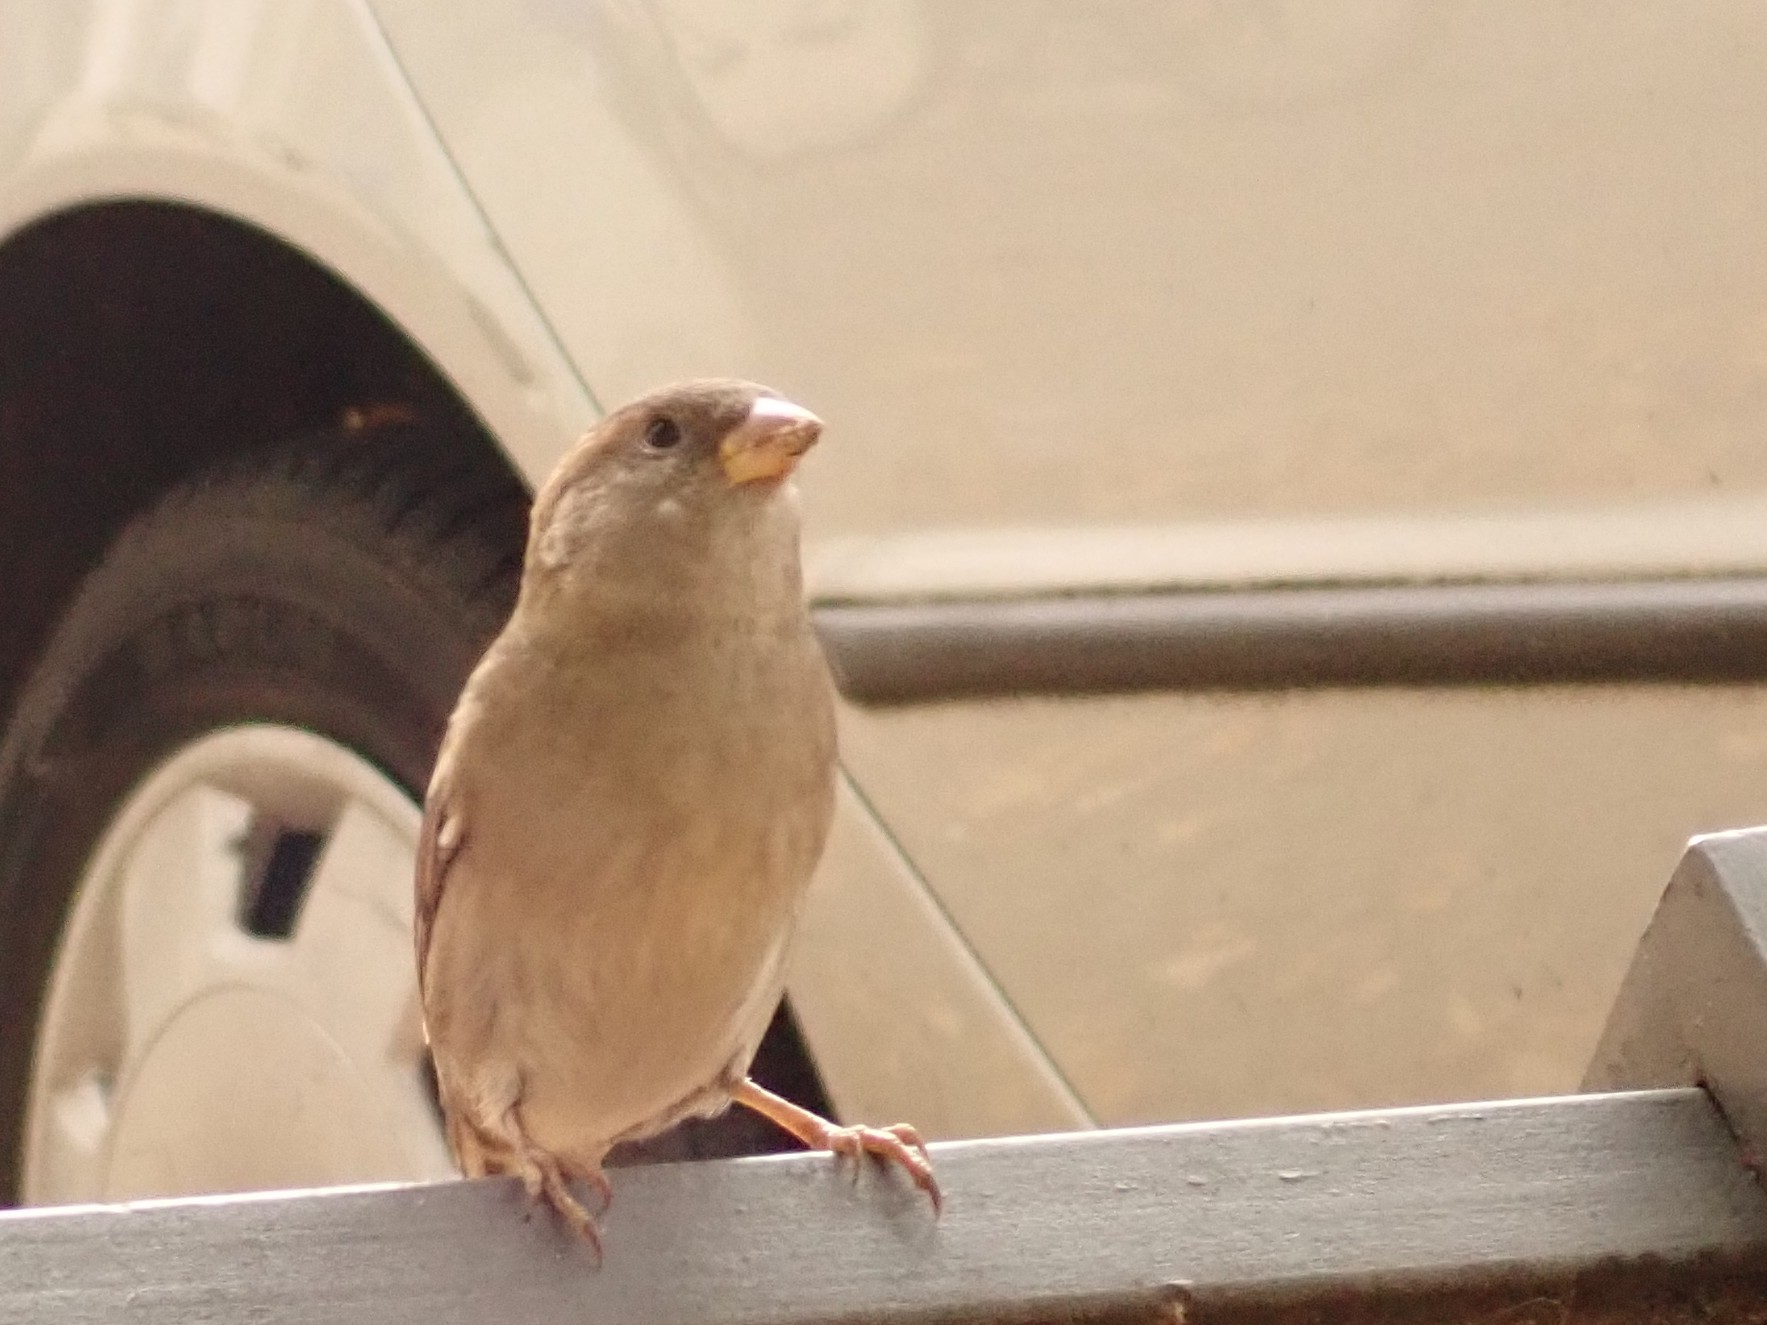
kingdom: Animalia
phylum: Chordata
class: Aves
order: Passeriformes
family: Passeridae
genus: Passer
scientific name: Passer domesticus
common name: House sparrow
